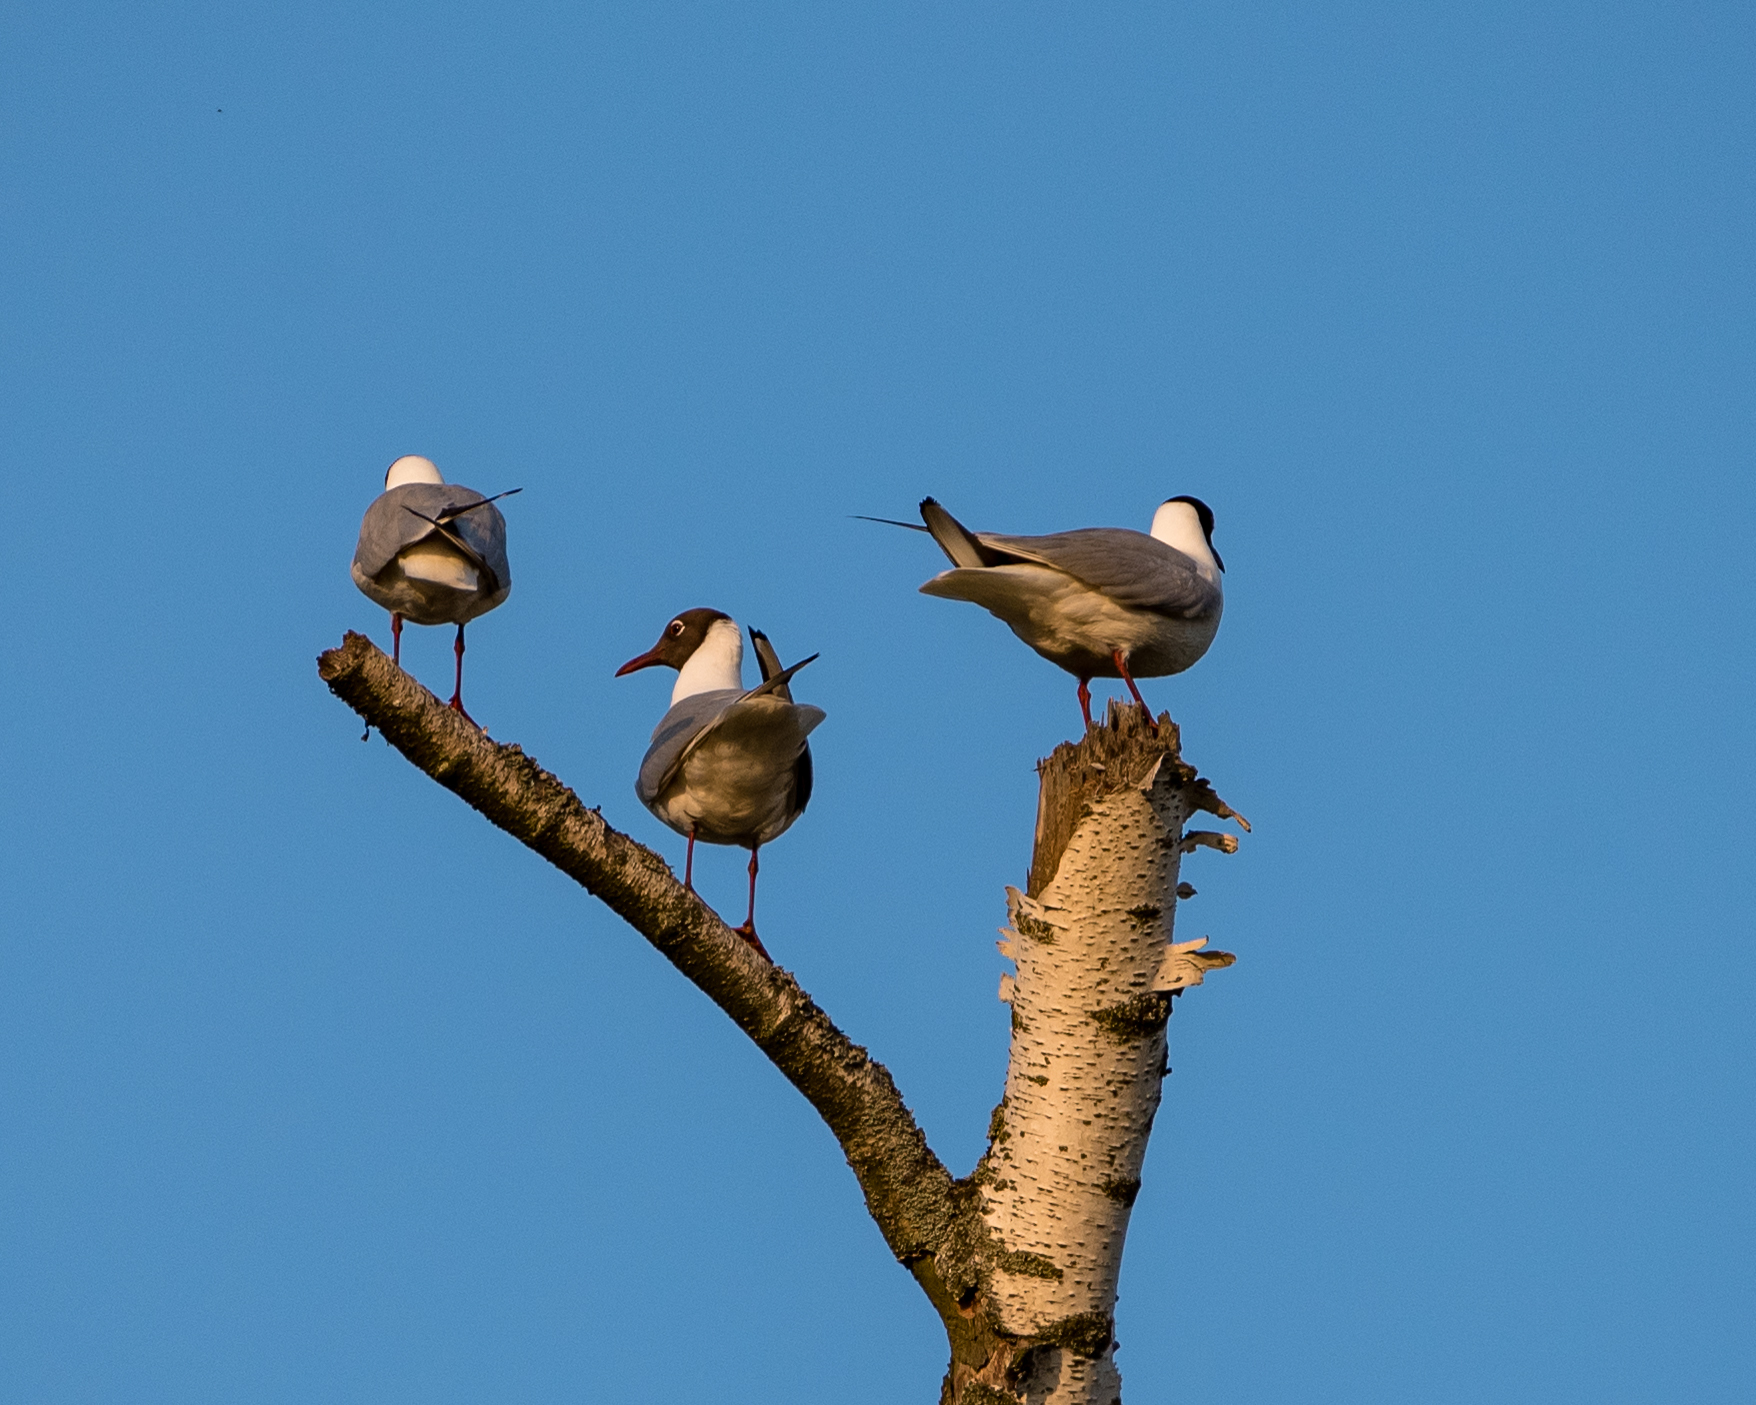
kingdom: Animalia
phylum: Chordata
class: Aves
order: Charadriiformes
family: Laridae
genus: Chroicocephalus
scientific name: Chroicocephalus ridibundus
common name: Black-headed gull
